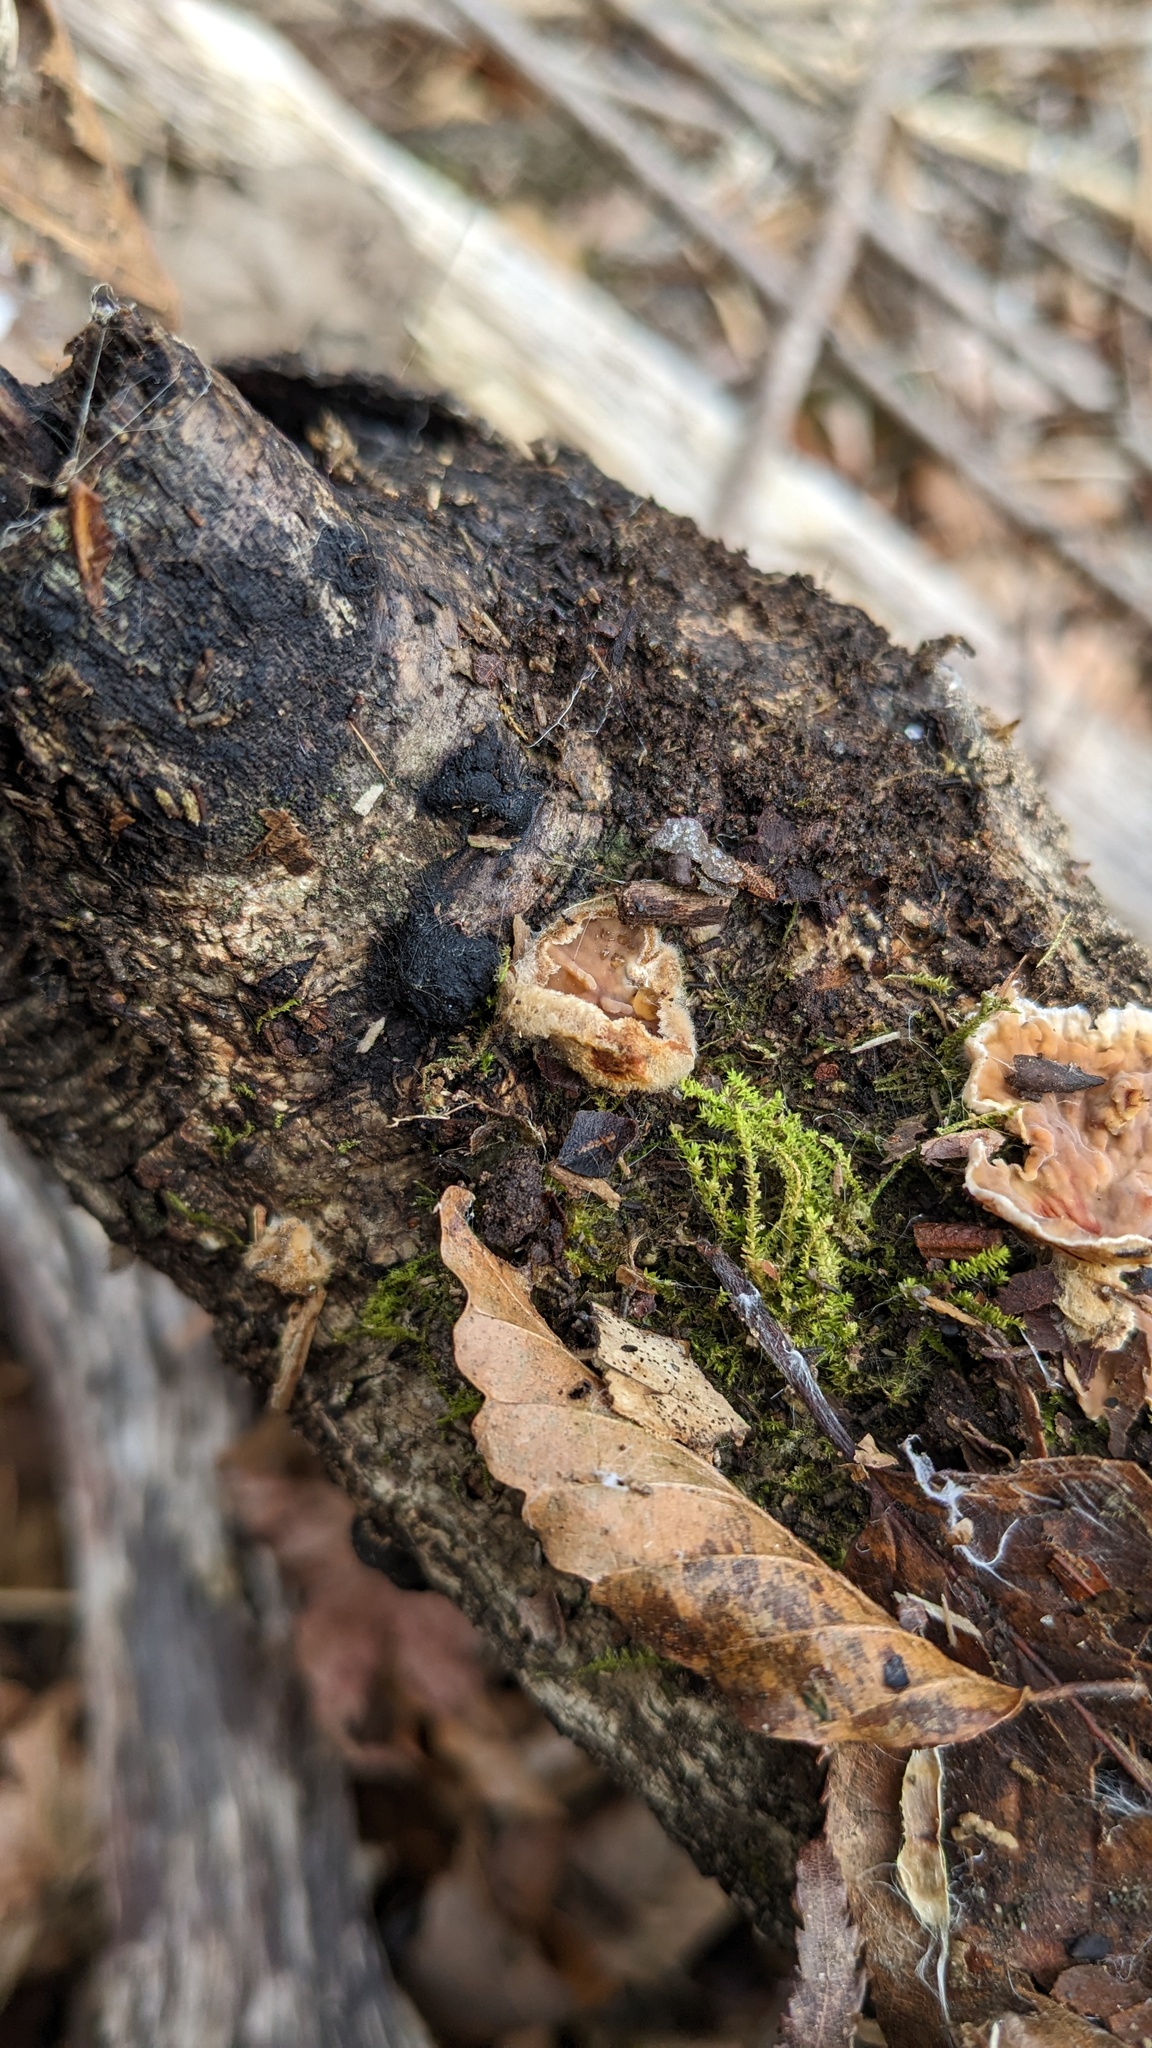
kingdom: Fungi
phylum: Basidiomycota
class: Agaricomycetes
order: Russulales
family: Stereaceae
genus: Stereum
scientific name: Stereum gausapatum
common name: Bleeding oak crust
